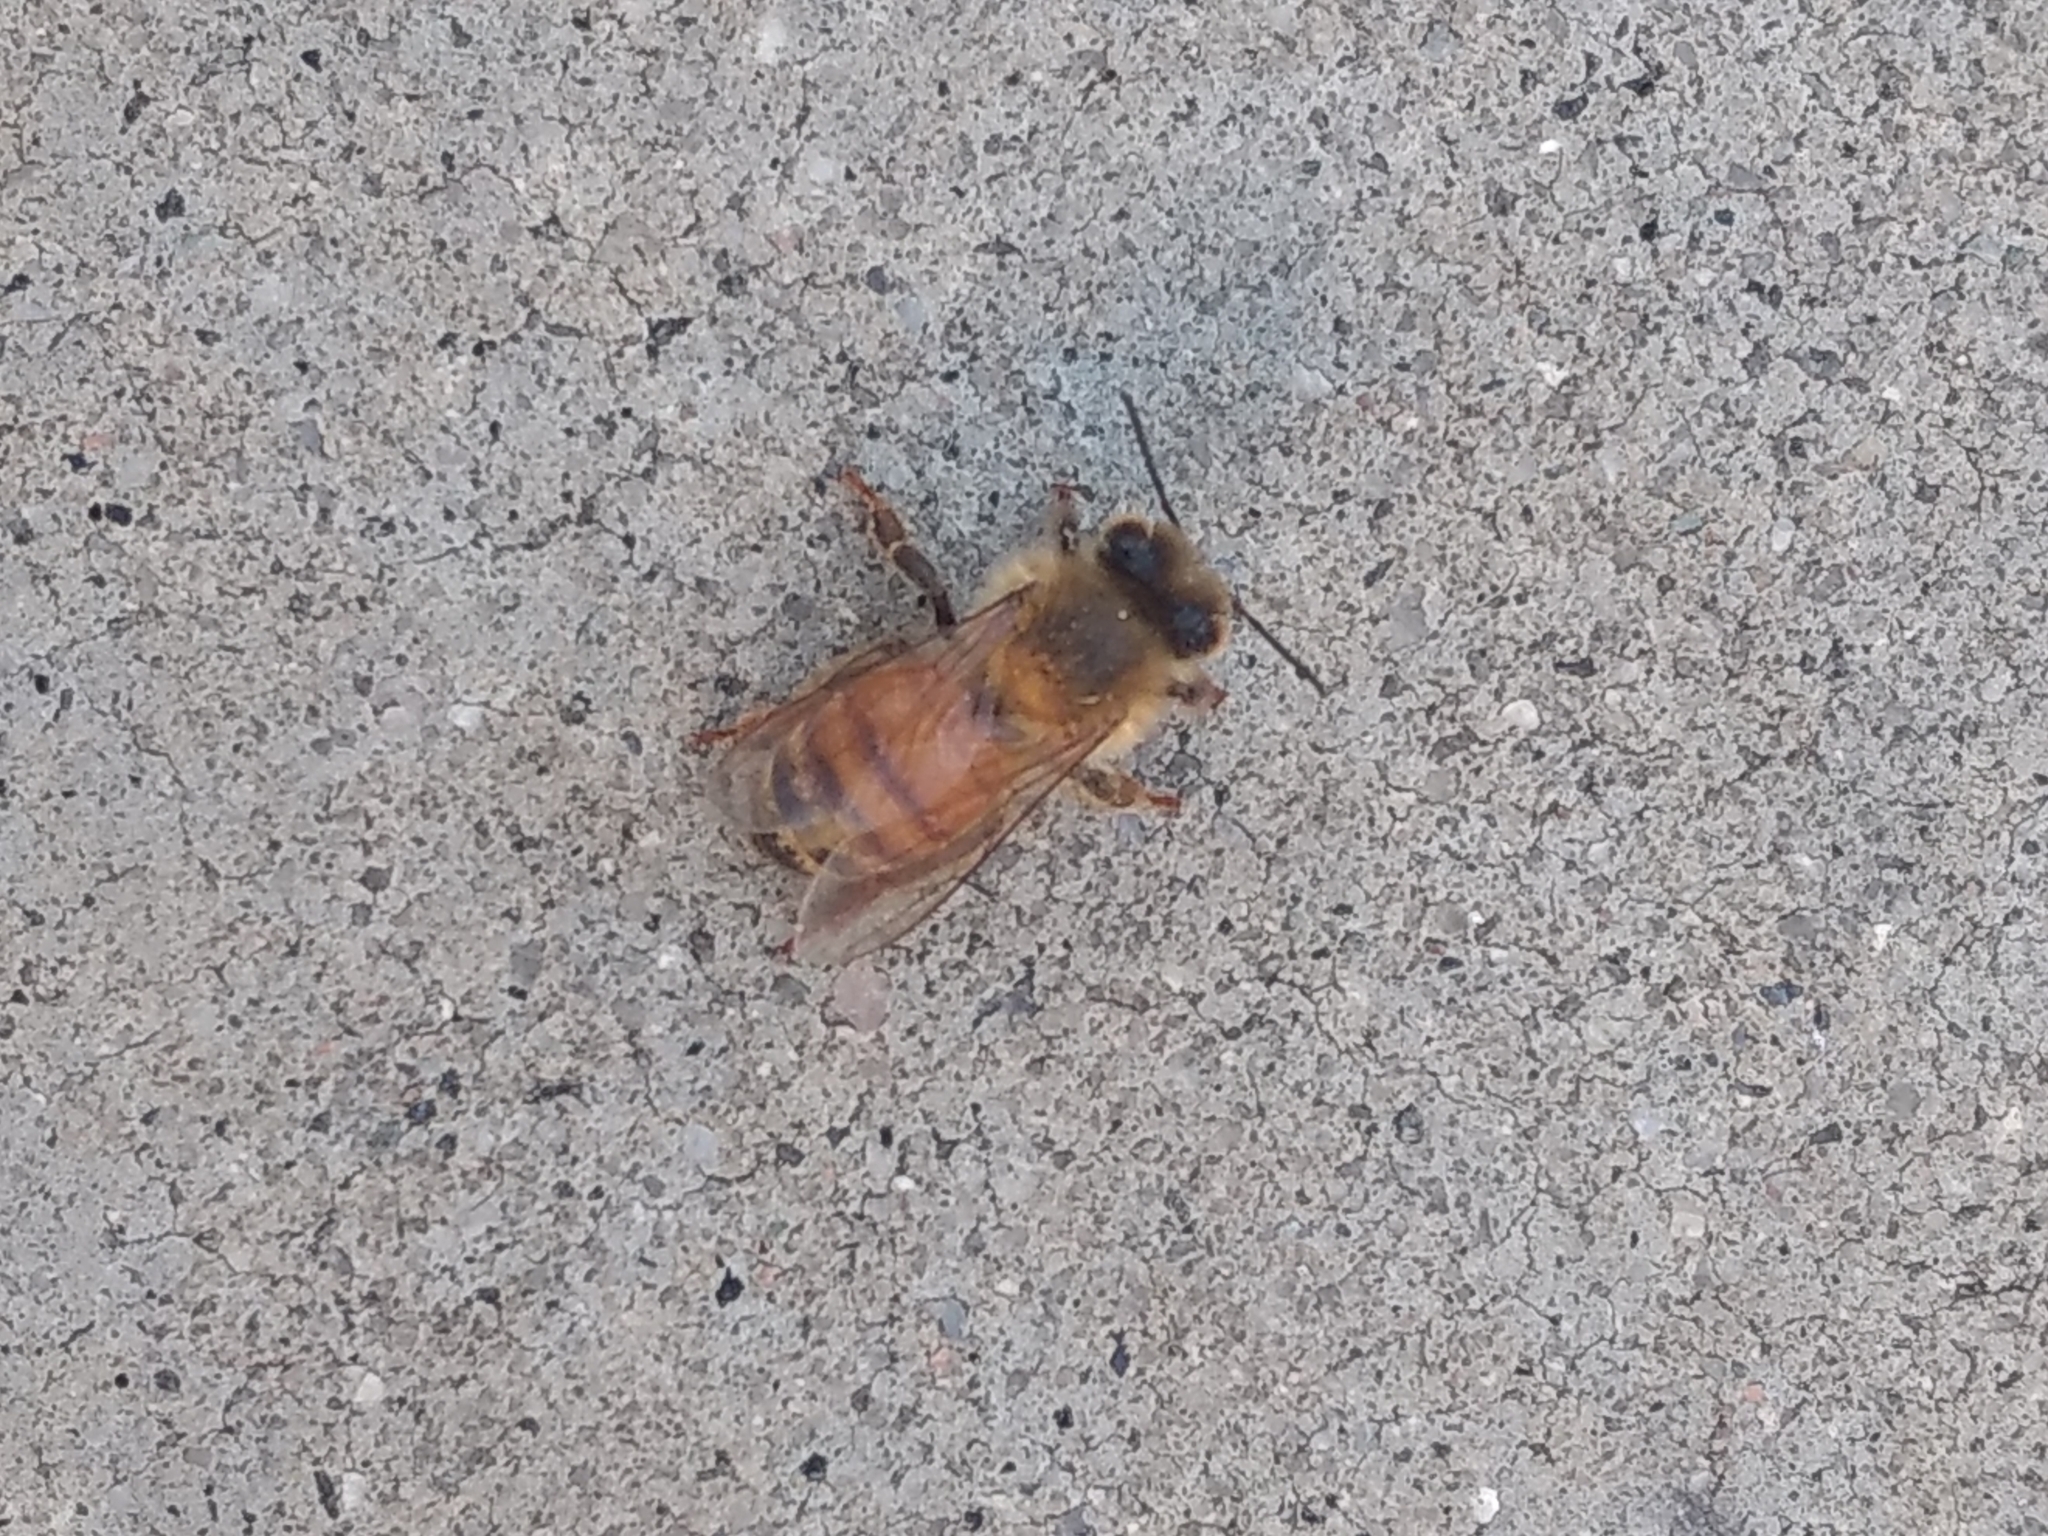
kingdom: Animalia
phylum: Arthropoda
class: Insecta
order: Hymenoptera
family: Apidae
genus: Apis
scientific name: Apis mellifera
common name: Honey bee
